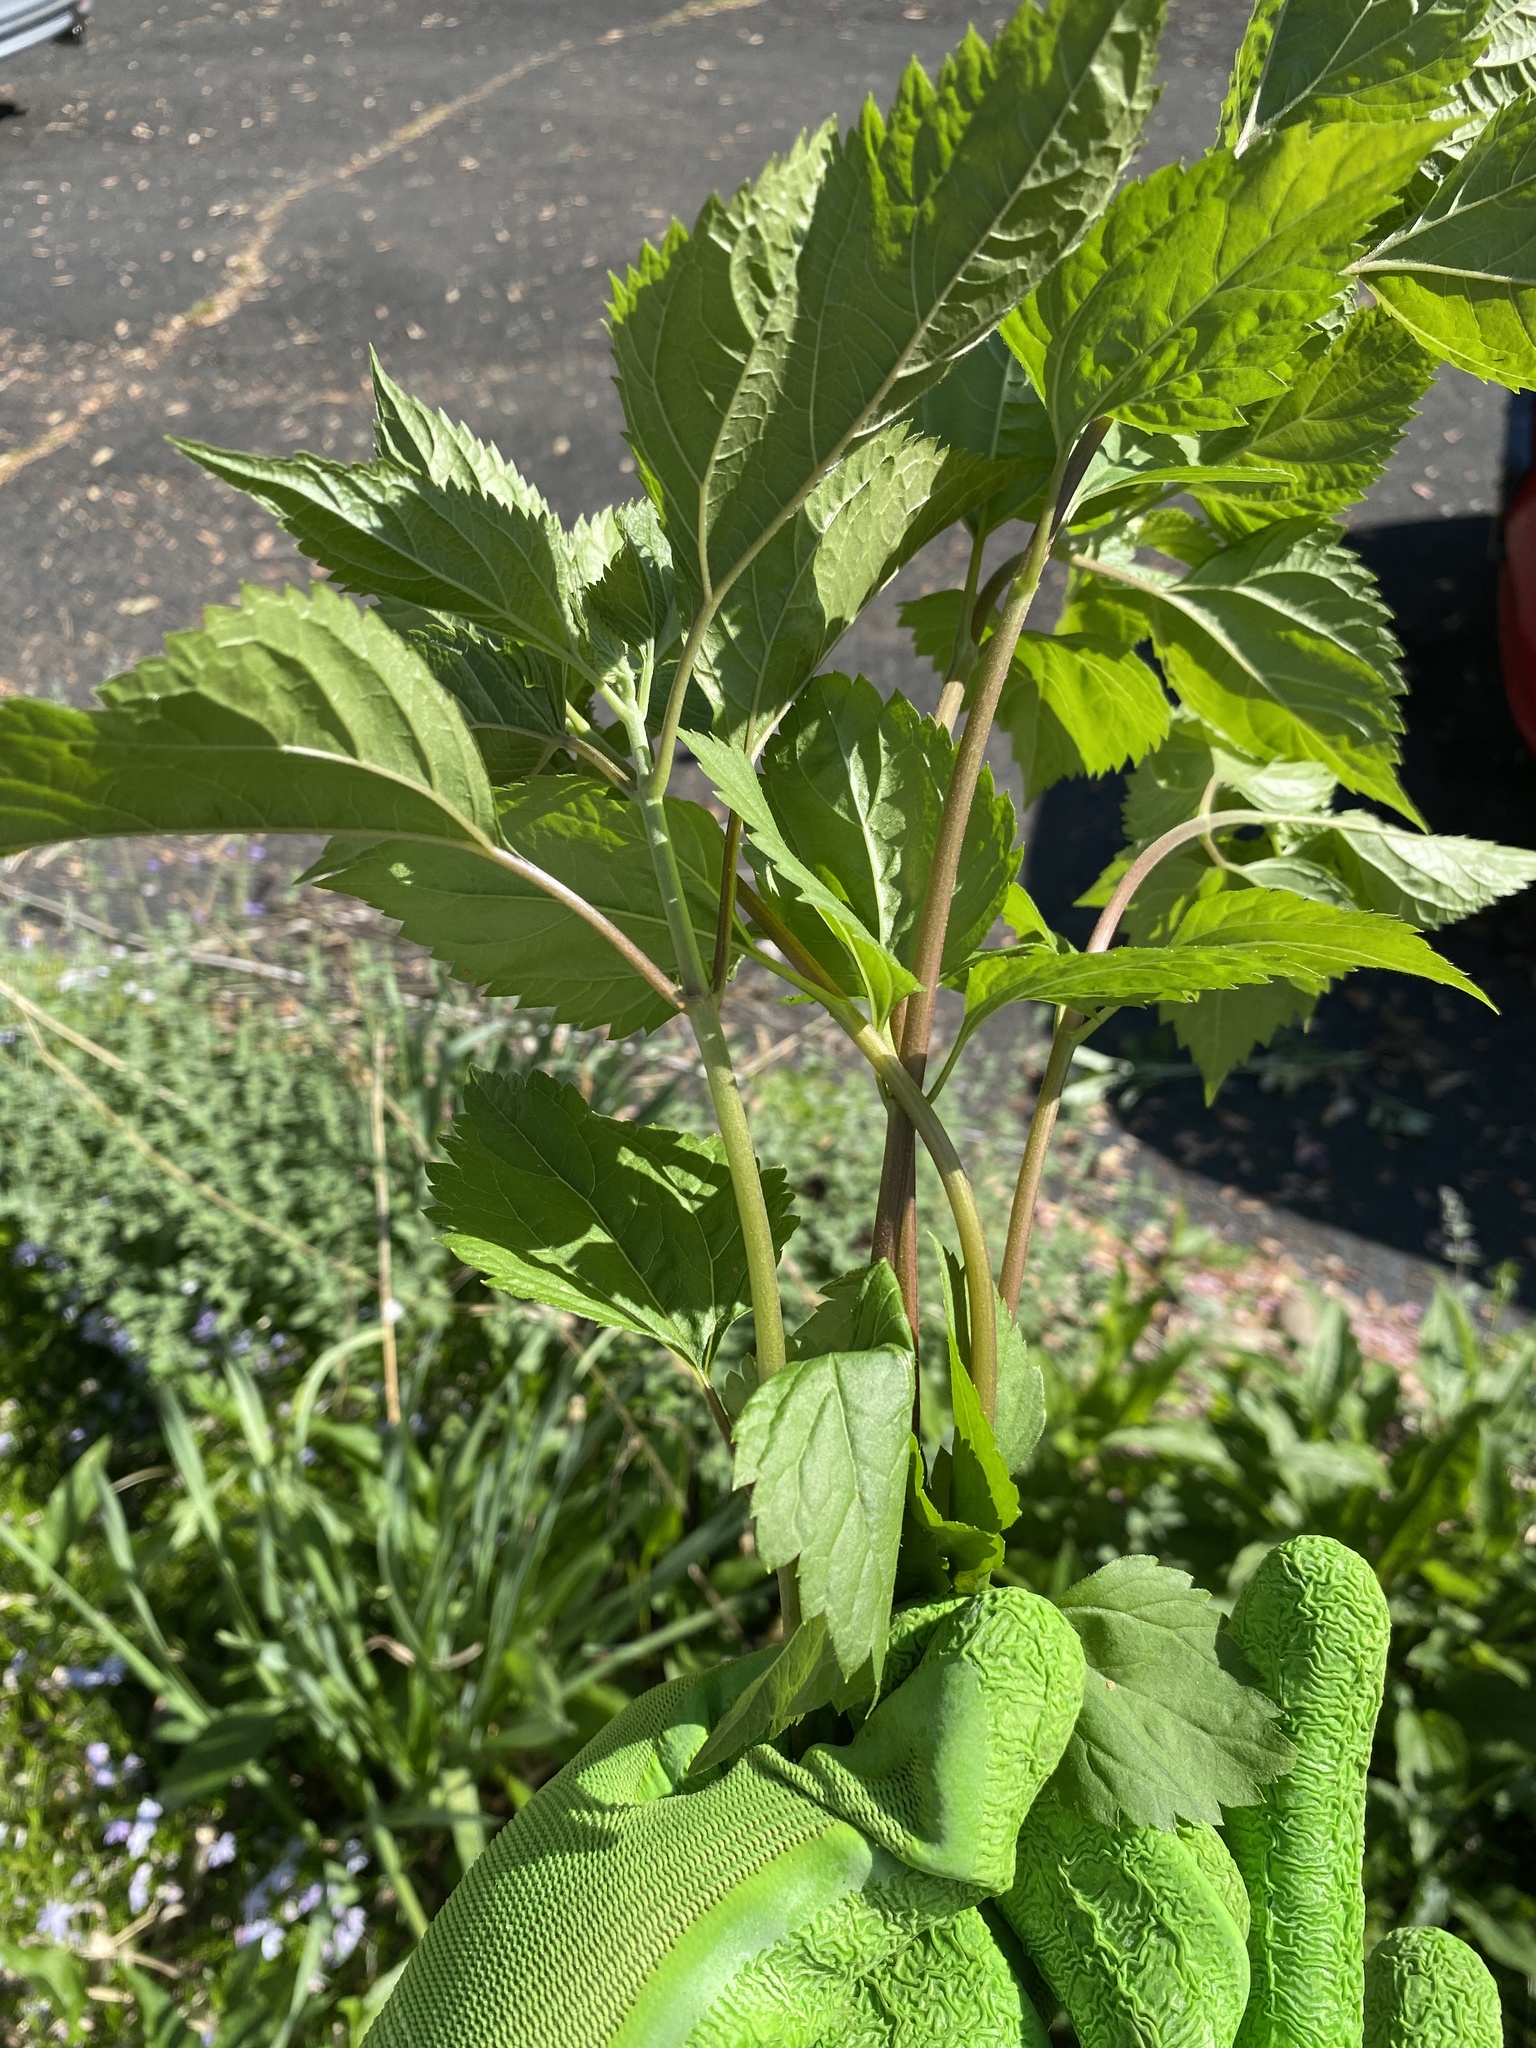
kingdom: Plantae
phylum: Tracheophyta
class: Magnoliopsida
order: Asterales
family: Asteraceae
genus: Ageratina
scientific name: Ageratina altissima
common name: White snakeroot
